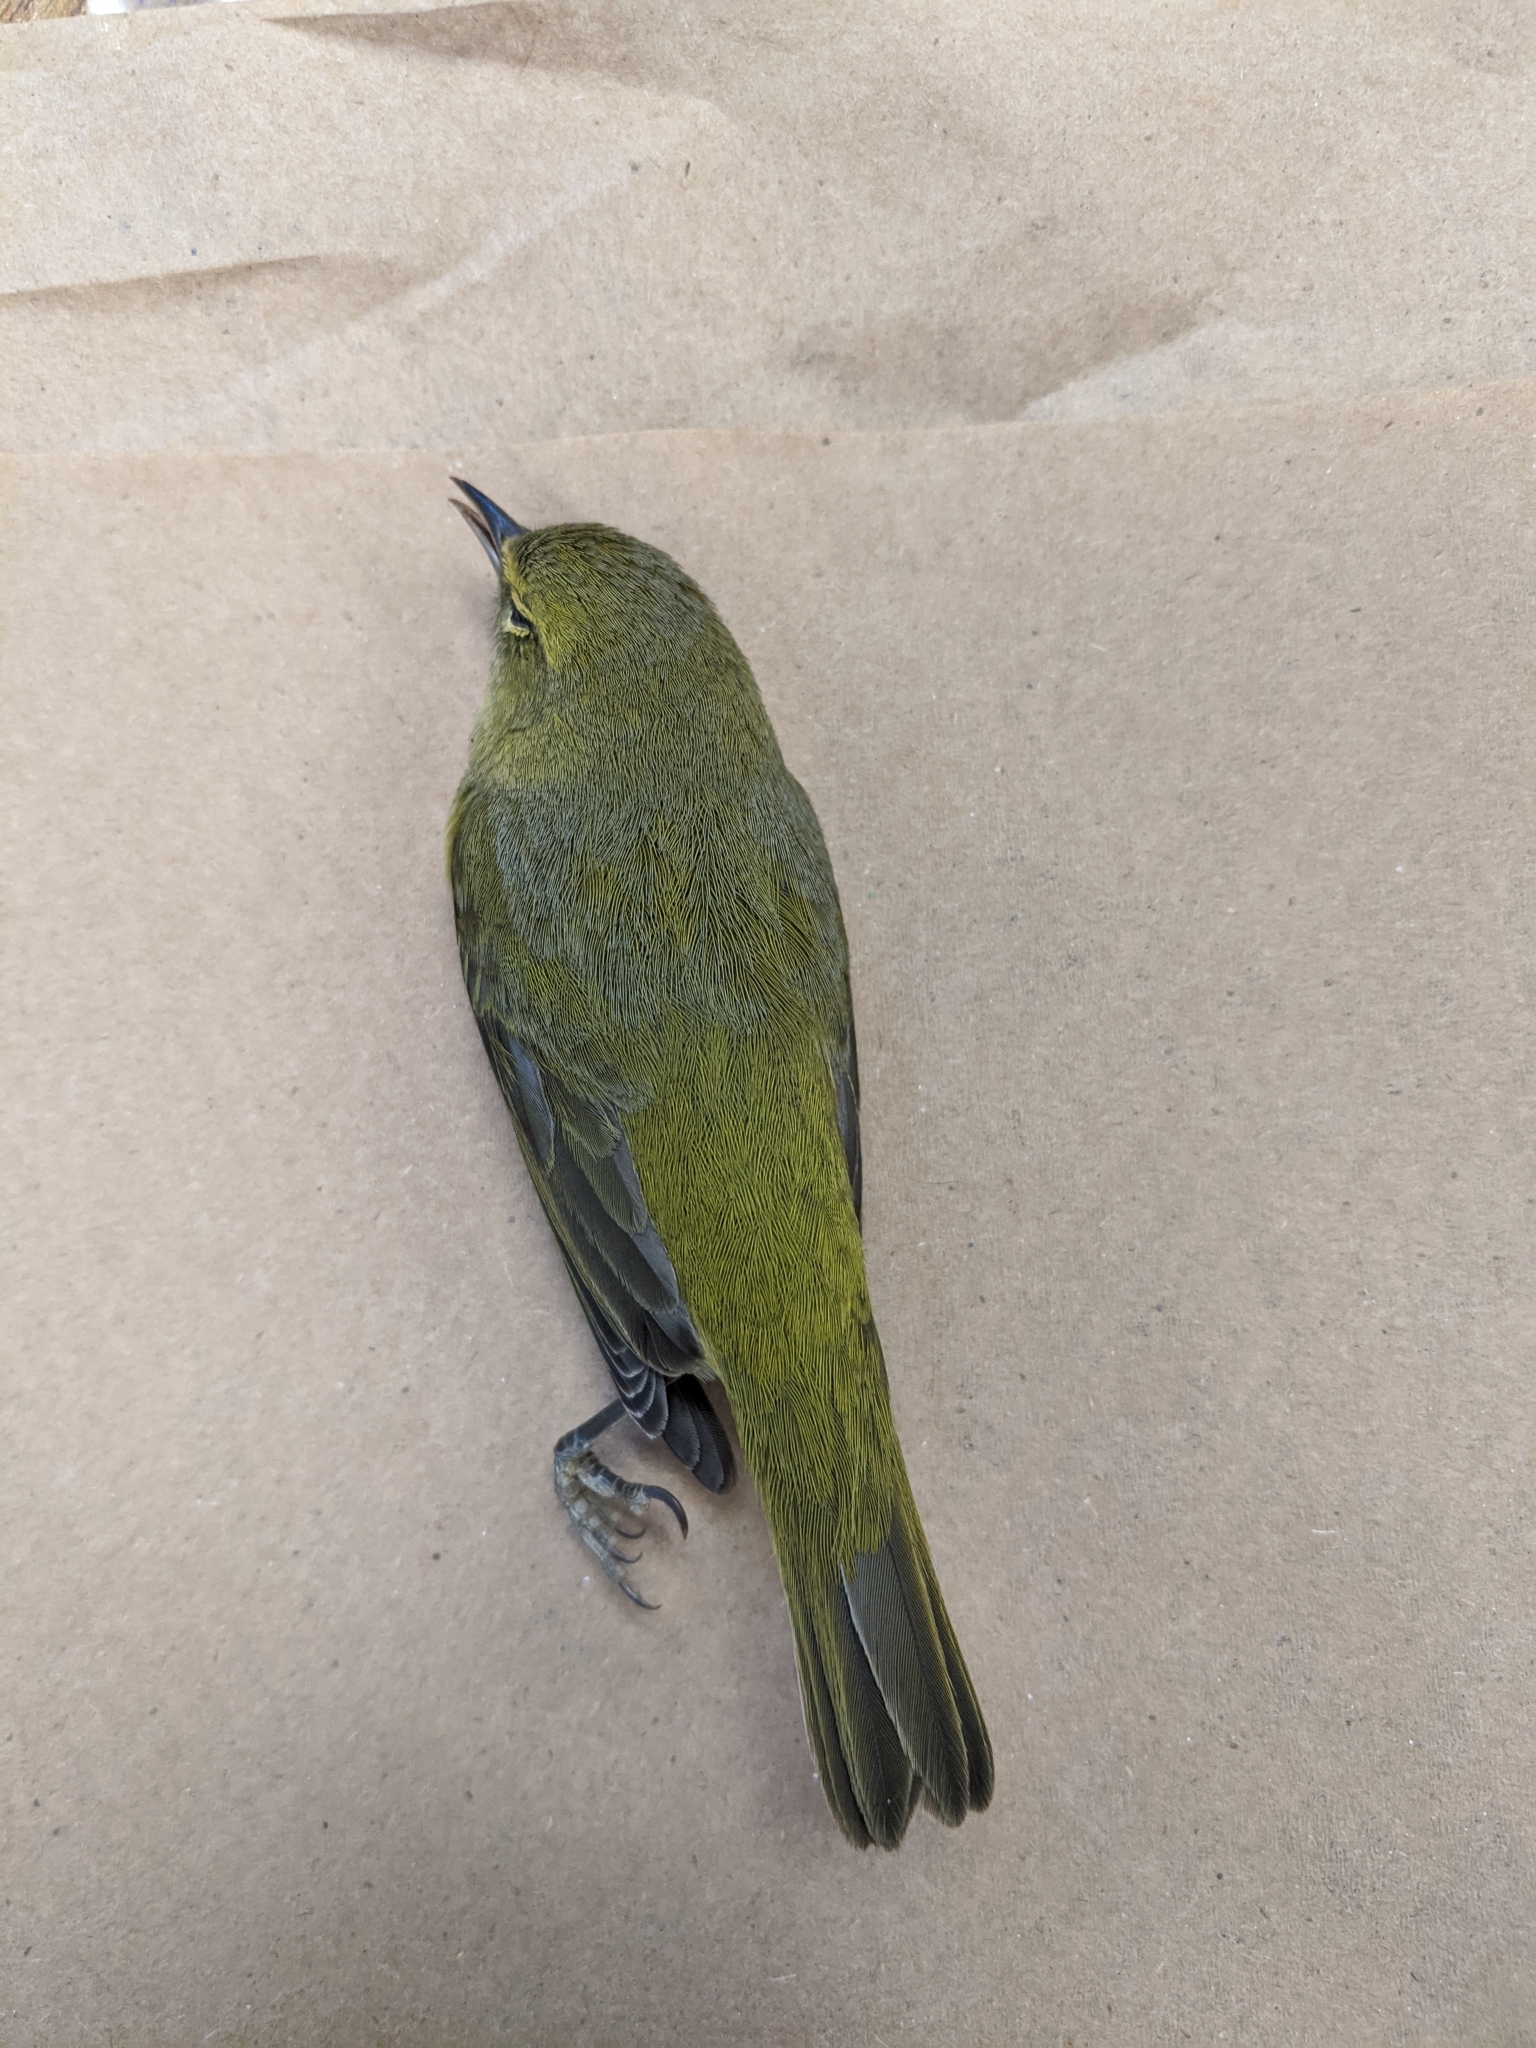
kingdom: Animalia
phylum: Chordata
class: Aves
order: Passeriformes
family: Parulidae
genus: Leiothlypis
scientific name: Leiothlypis celata
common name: Orange-crowned warbler
